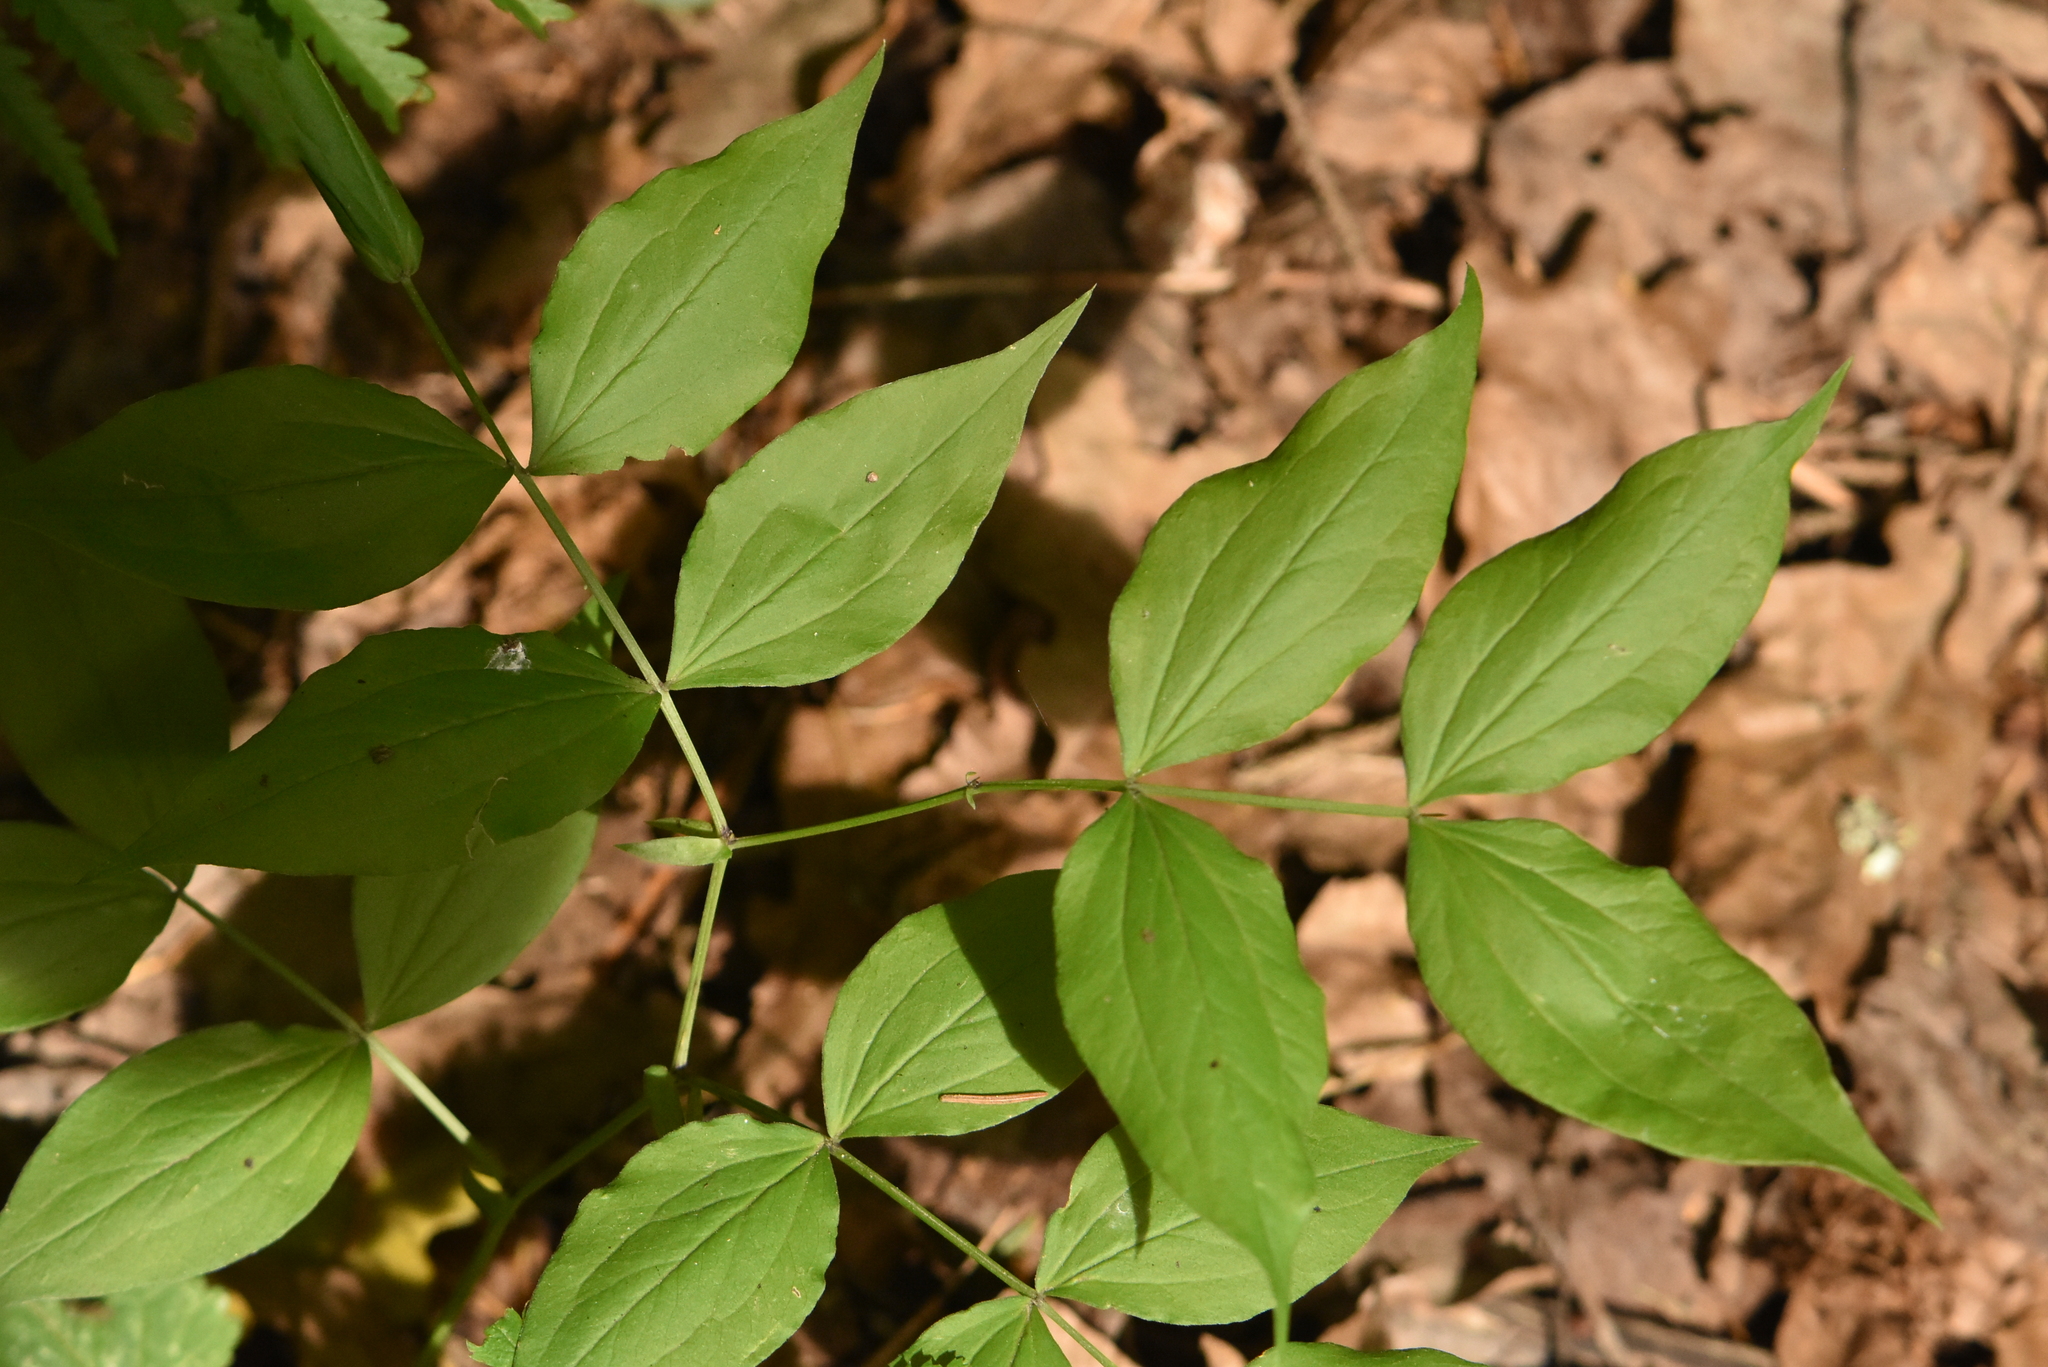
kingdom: Plantae
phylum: Tracheophyta
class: Magnoliopsida
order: Fabales
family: Fabaceae
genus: Lathyrus
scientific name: Lathyrus vernus
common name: Spring pea
